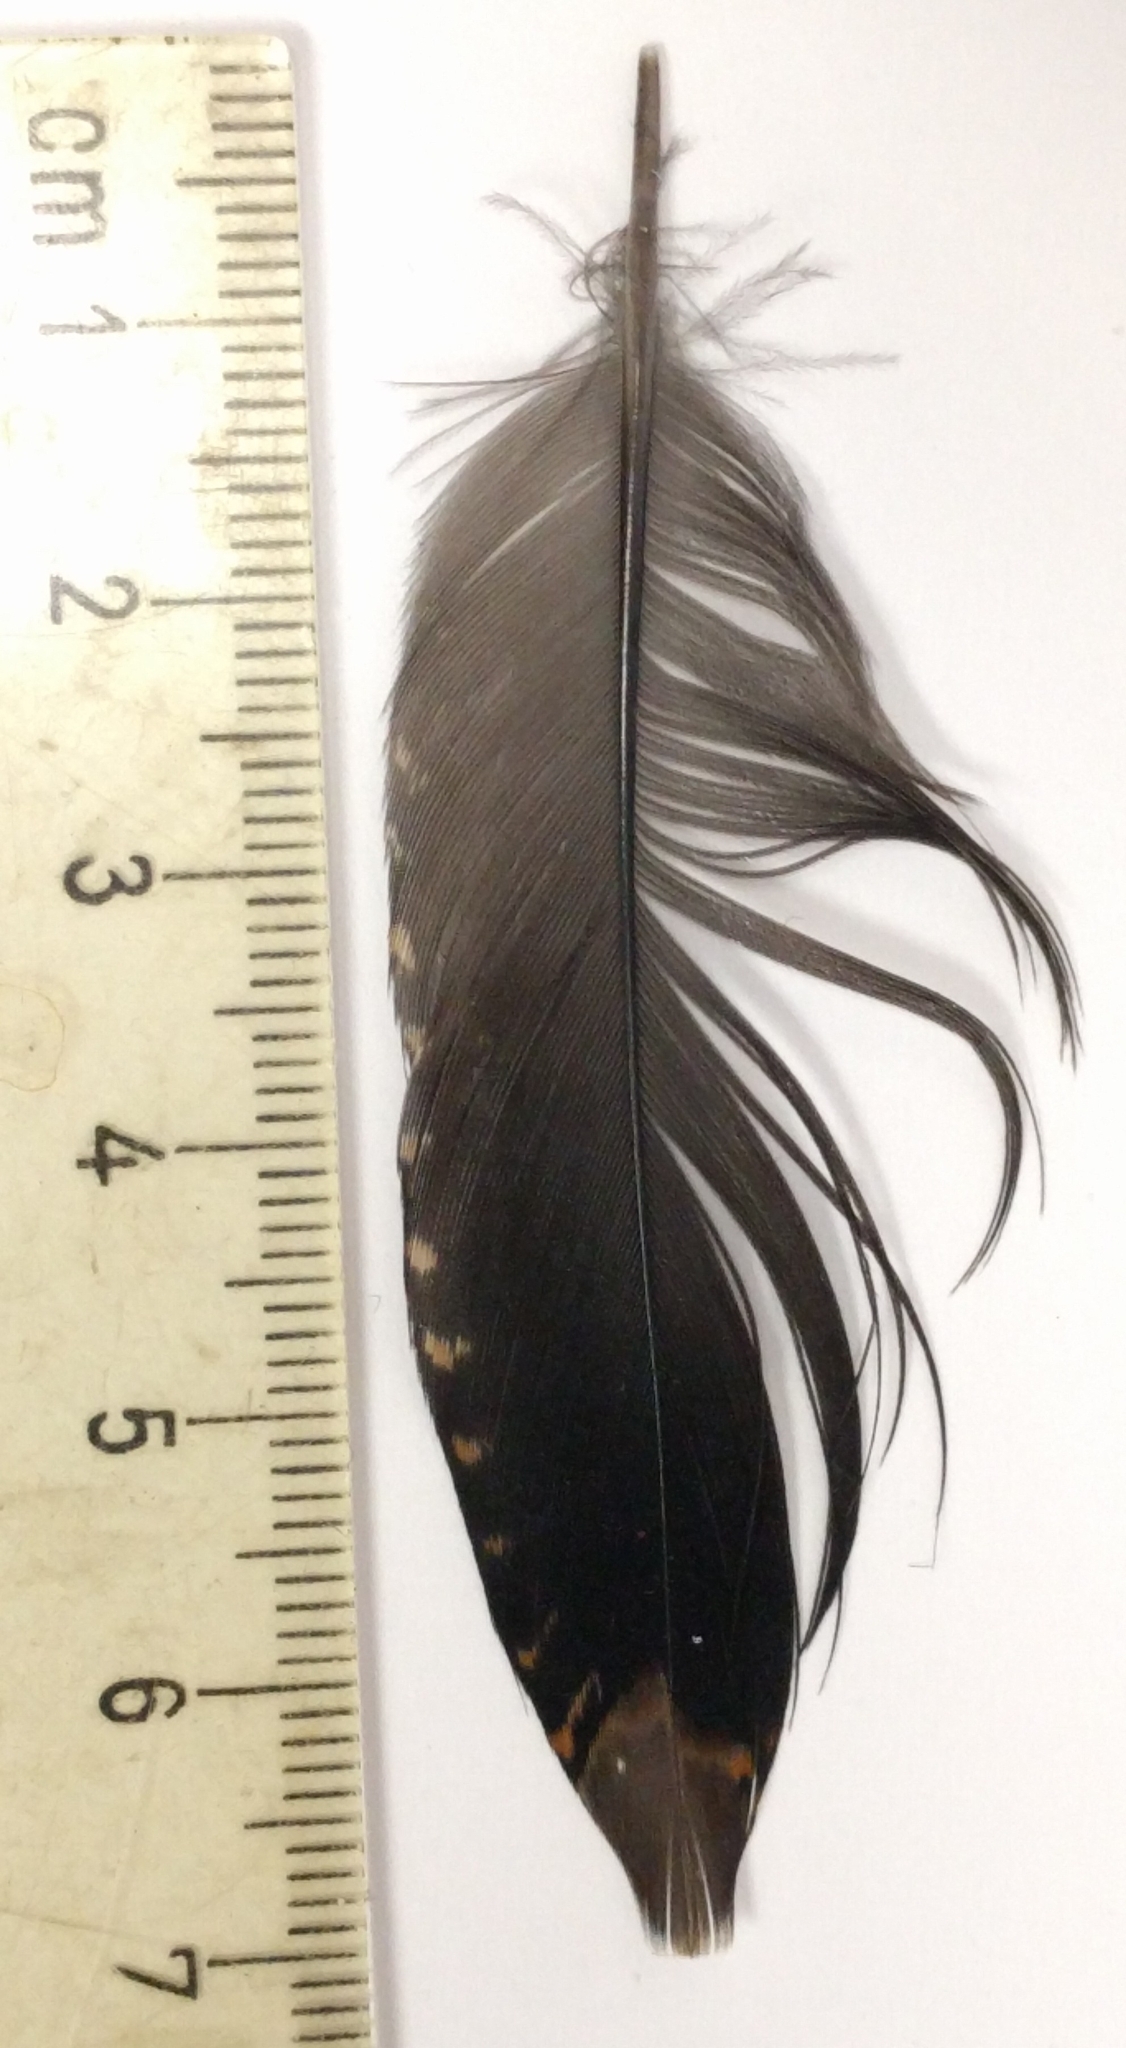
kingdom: Animalia
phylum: Chordata
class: Aves
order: Charadriiformes
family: Scolopacidae
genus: Scolopax
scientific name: Scolopax minor
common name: American woodcock
